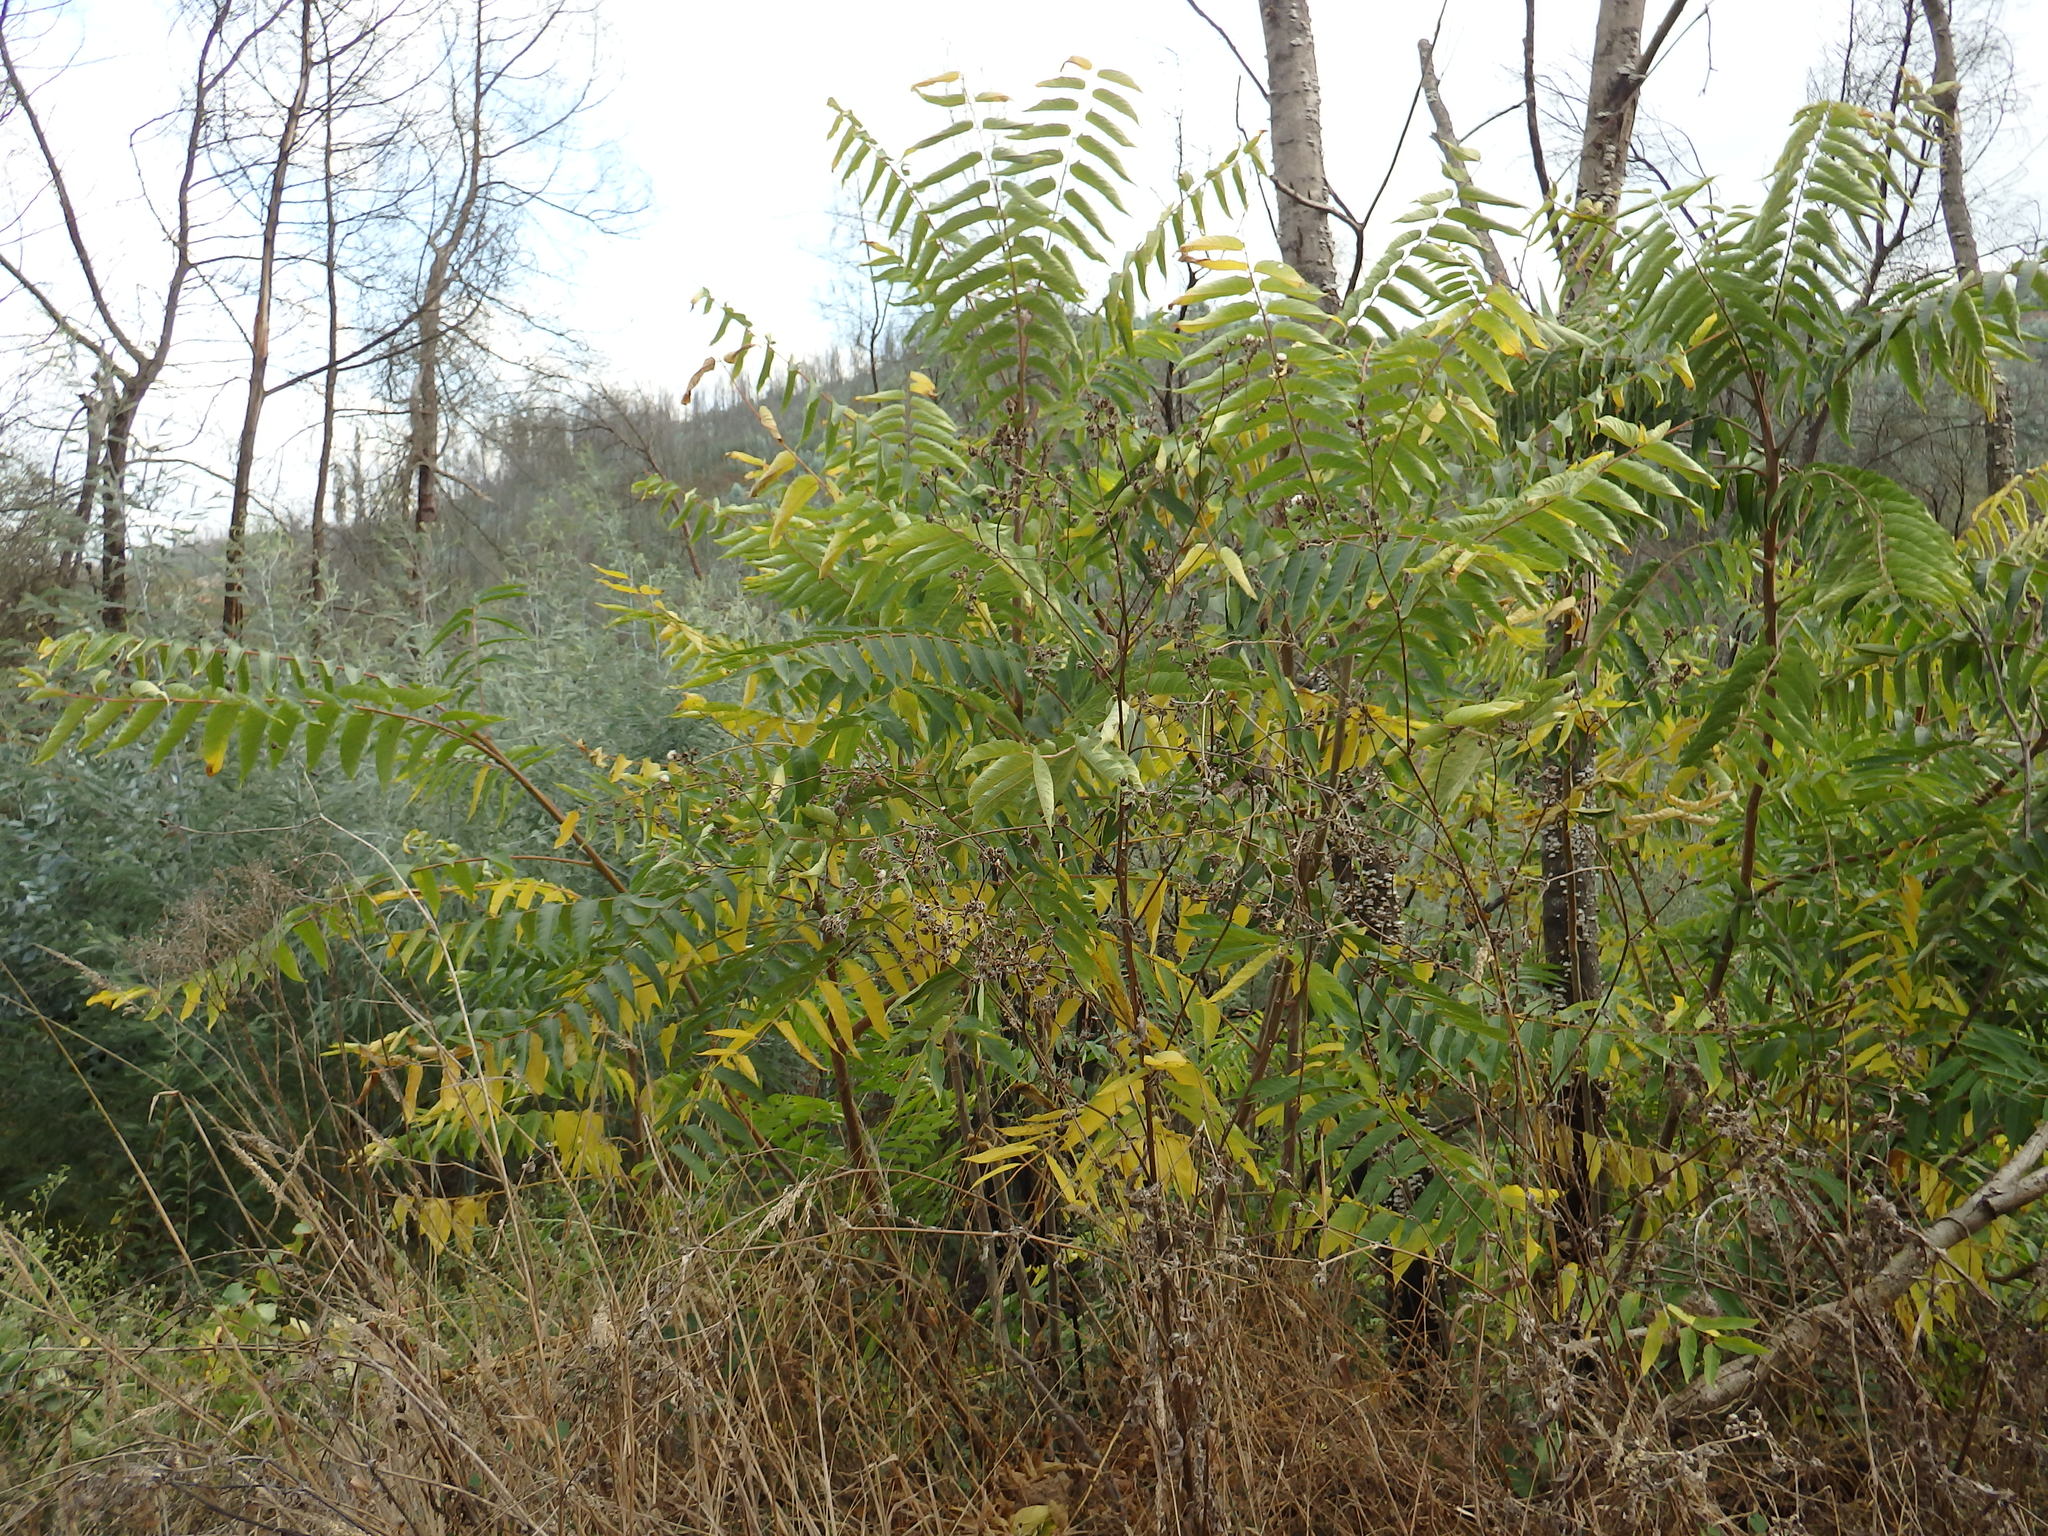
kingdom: Plantae
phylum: Tracheophyta
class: Magnoliopsida
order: Sapindales
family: Simaroubaceae
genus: Ailanthus
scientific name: Ailanthus altissima
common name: Tree-of-heaven
